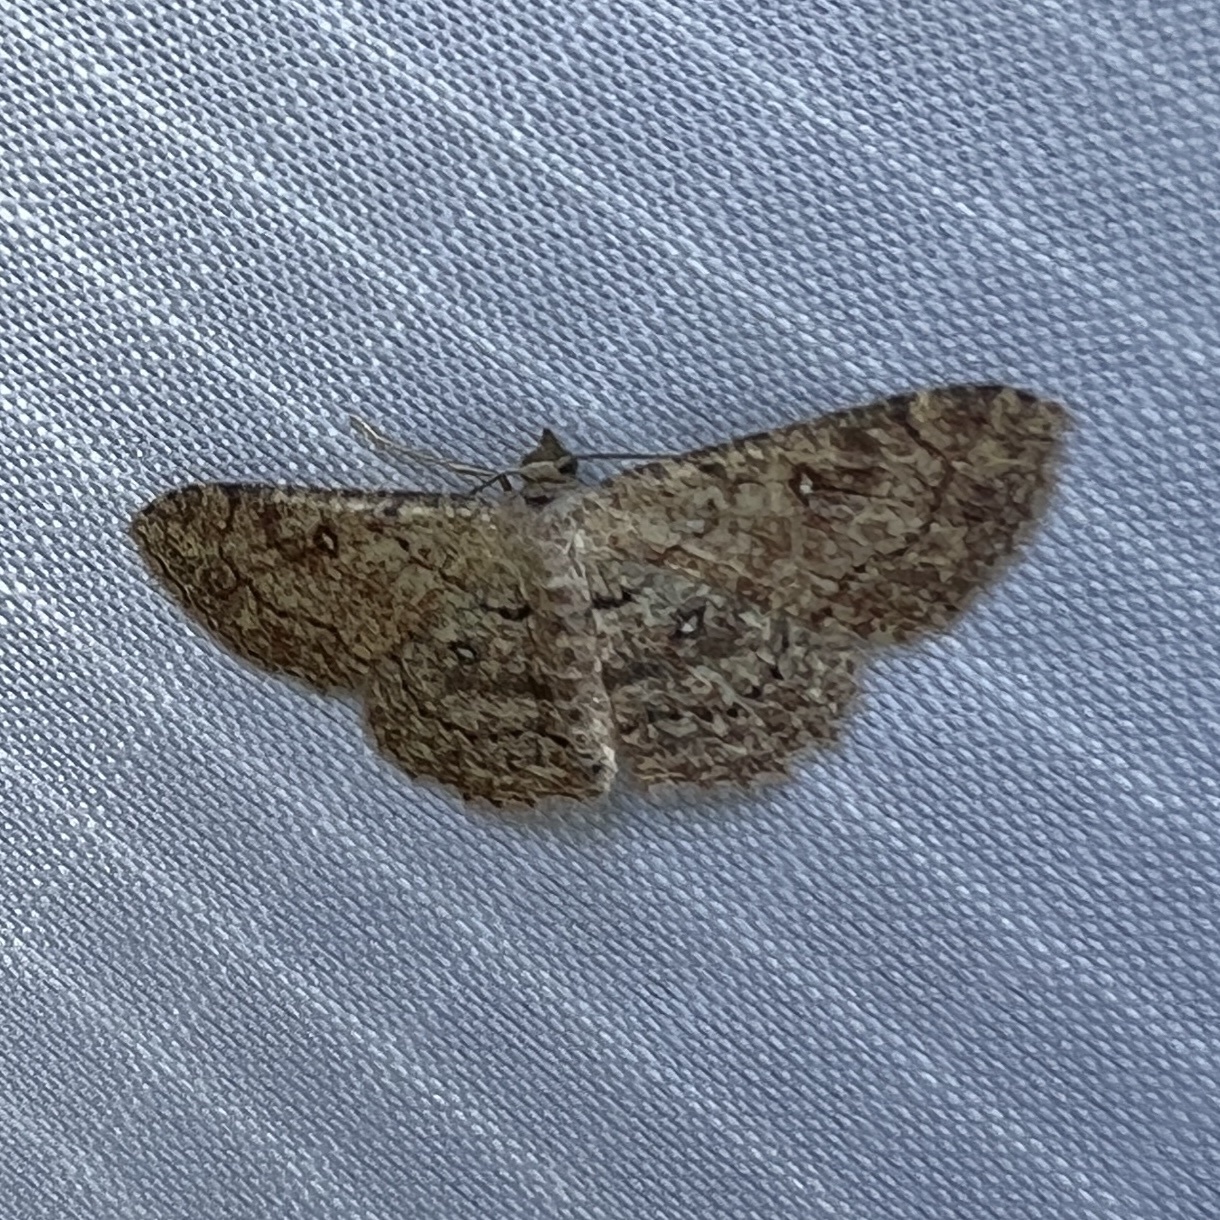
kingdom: Animalia
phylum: Arthropoda
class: Insecta
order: Lepidoptera
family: Geometridae
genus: Cyclophora
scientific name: Cyclophora nanaria
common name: Cankerworm
